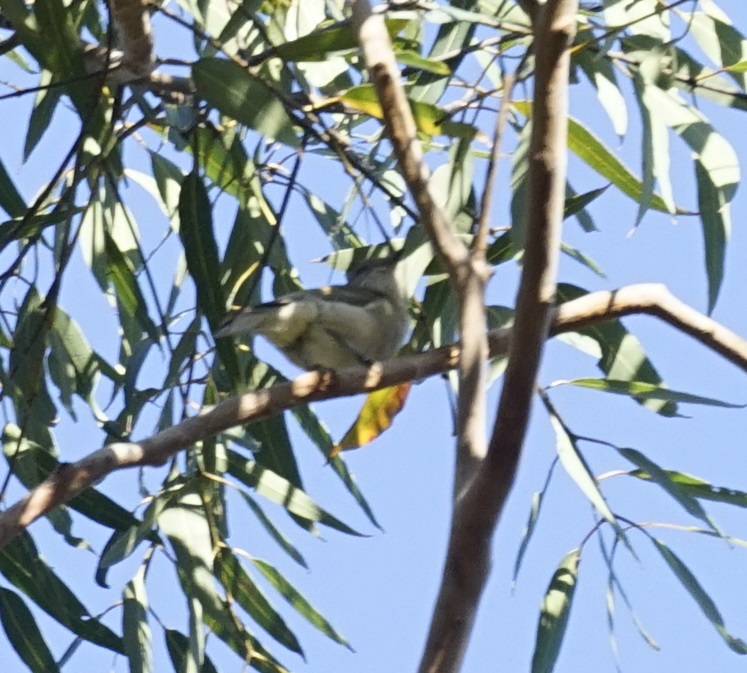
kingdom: Animalia
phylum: Chordata
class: Aves
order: Passeriformes
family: Pachycephalidae
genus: Pachycephala
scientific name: Pachycephala pectoralis
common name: Australian golden whistler
